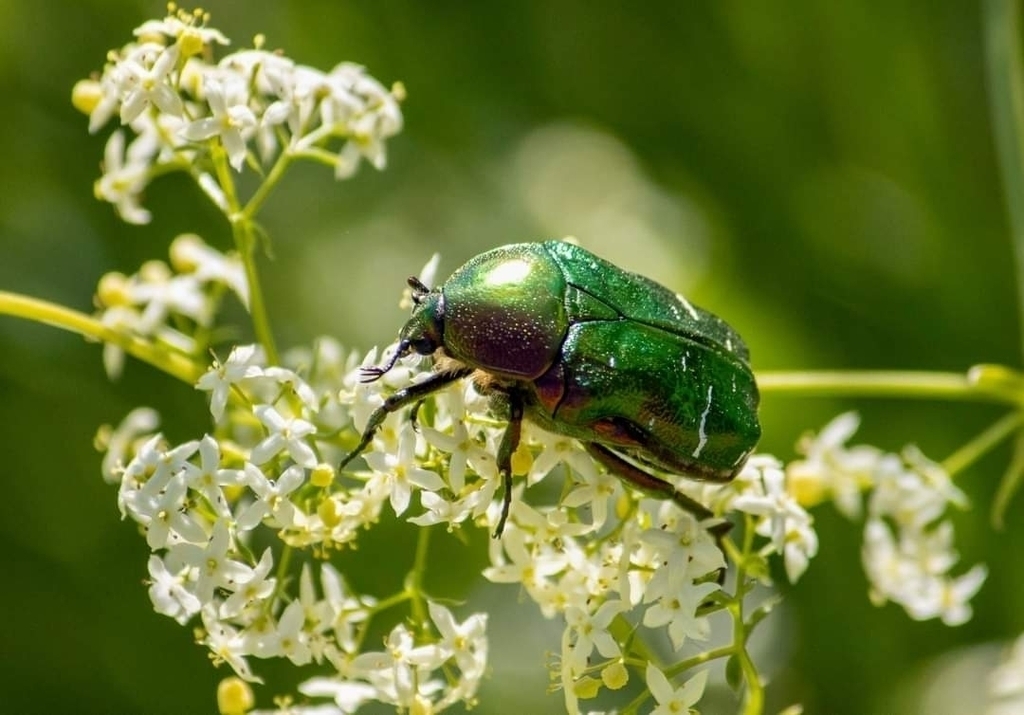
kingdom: Animalia
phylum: Arthropoda
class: Insecta
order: Coleoptera
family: Scarabaeidae
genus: Cetonia
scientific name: Cetonia aurata
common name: Rose chafer
